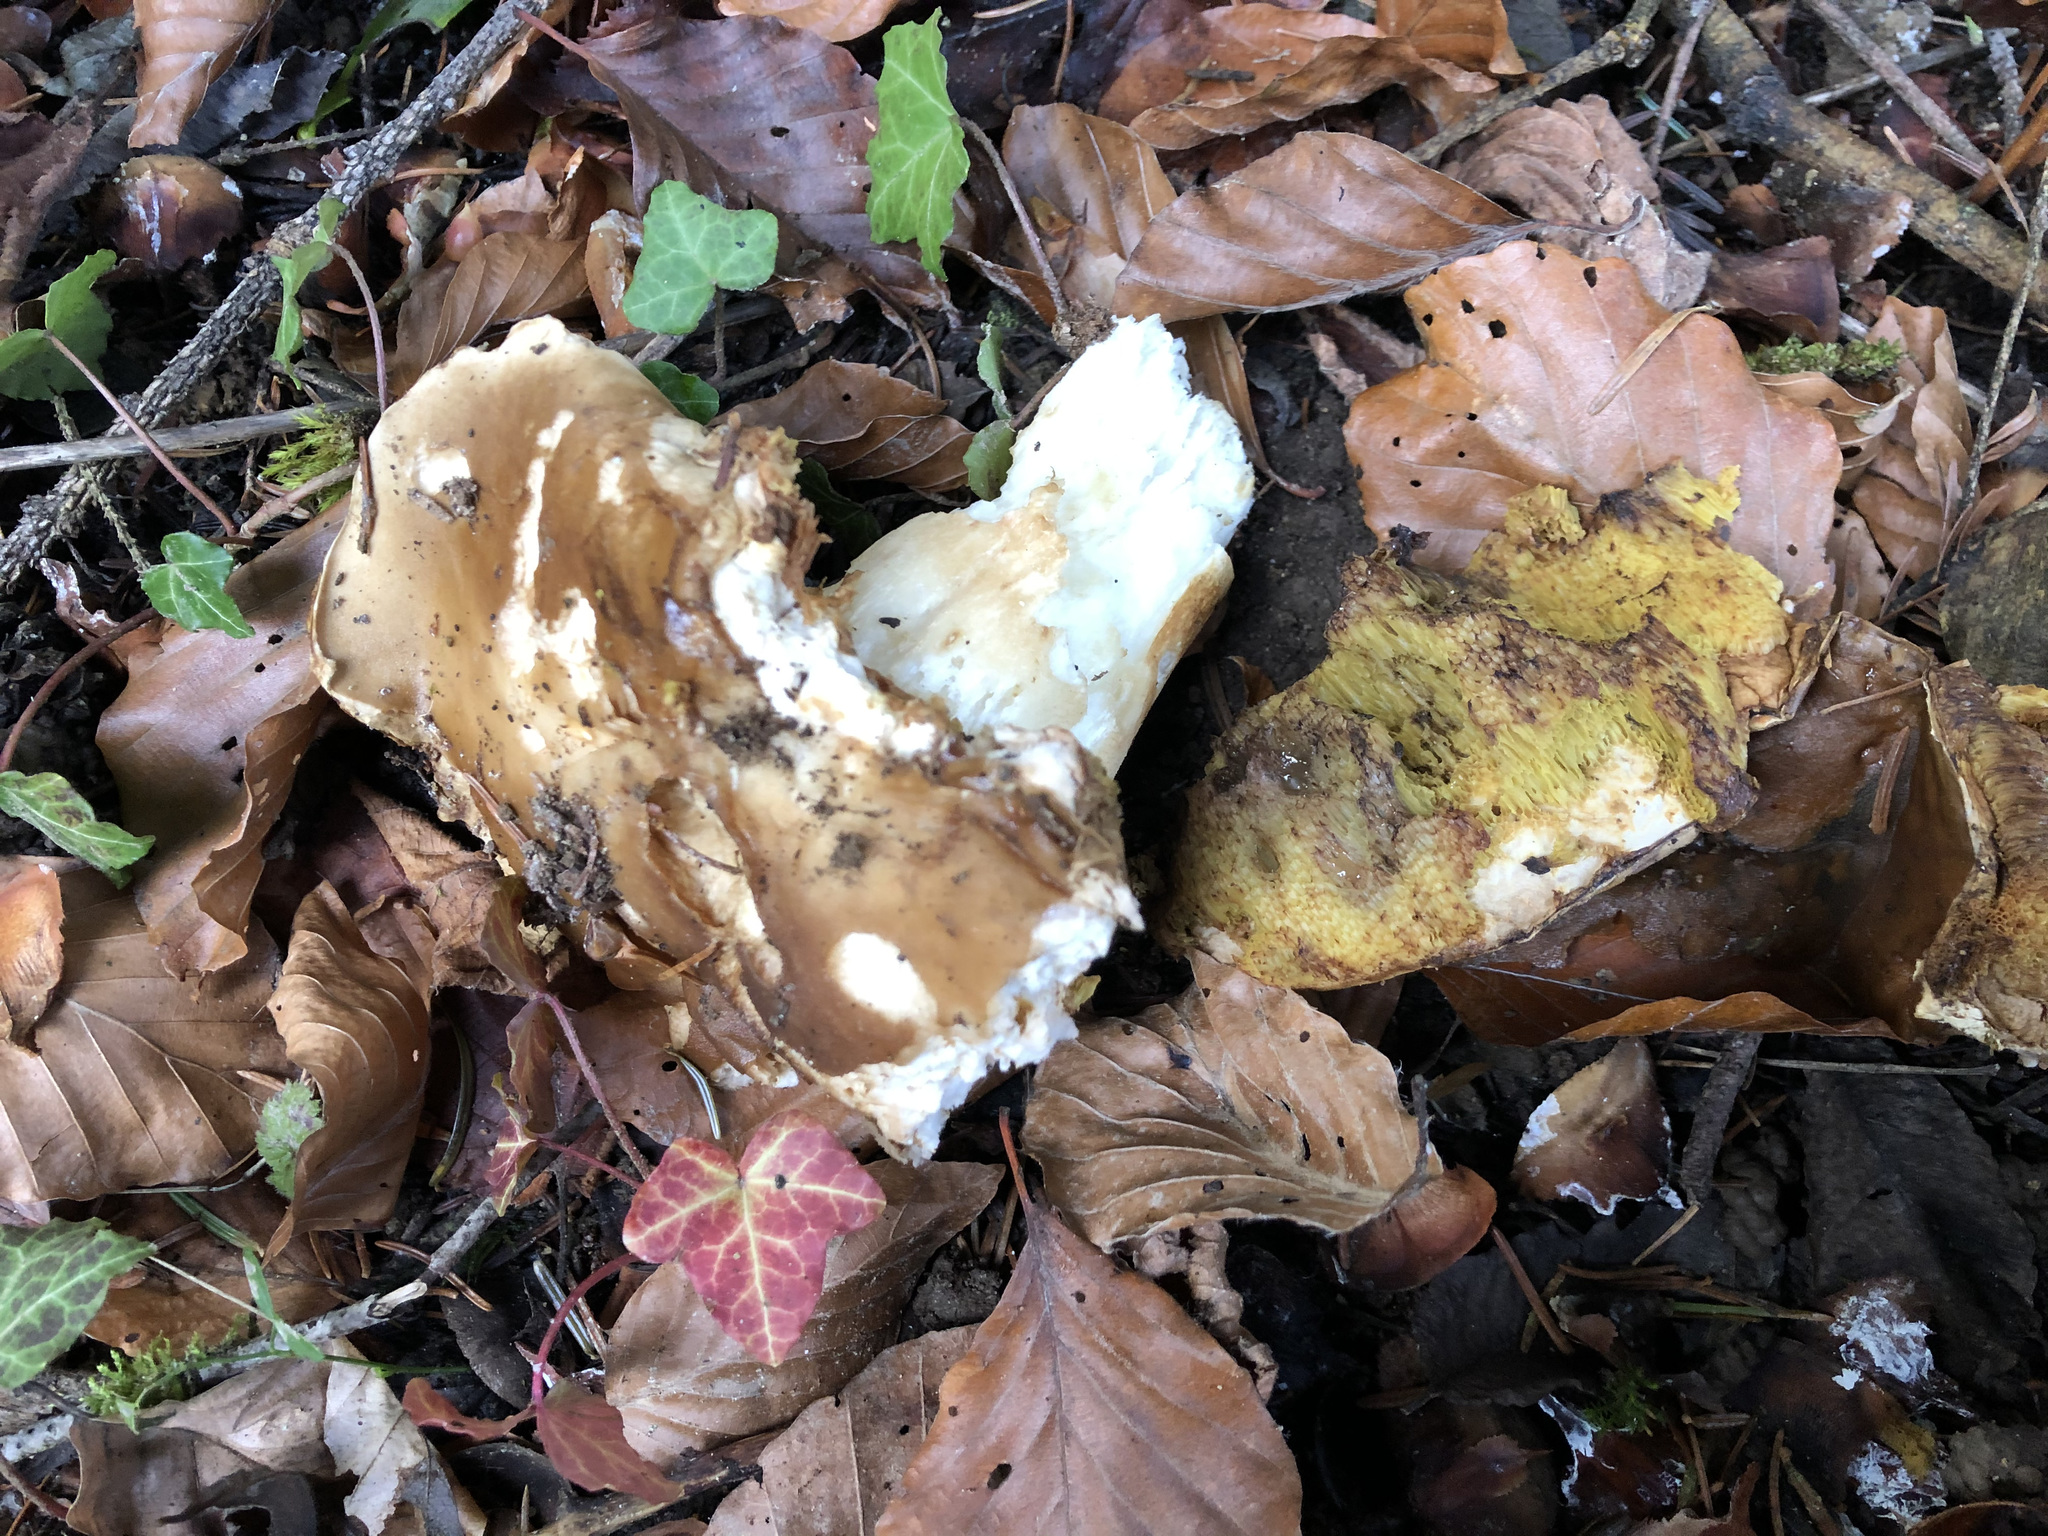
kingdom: Fungi
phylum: Basidiomycota
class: Agaricomycetes
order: Boletales
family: Boletaceae
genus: Boletus
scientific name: Boletus edulis
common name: Cep
